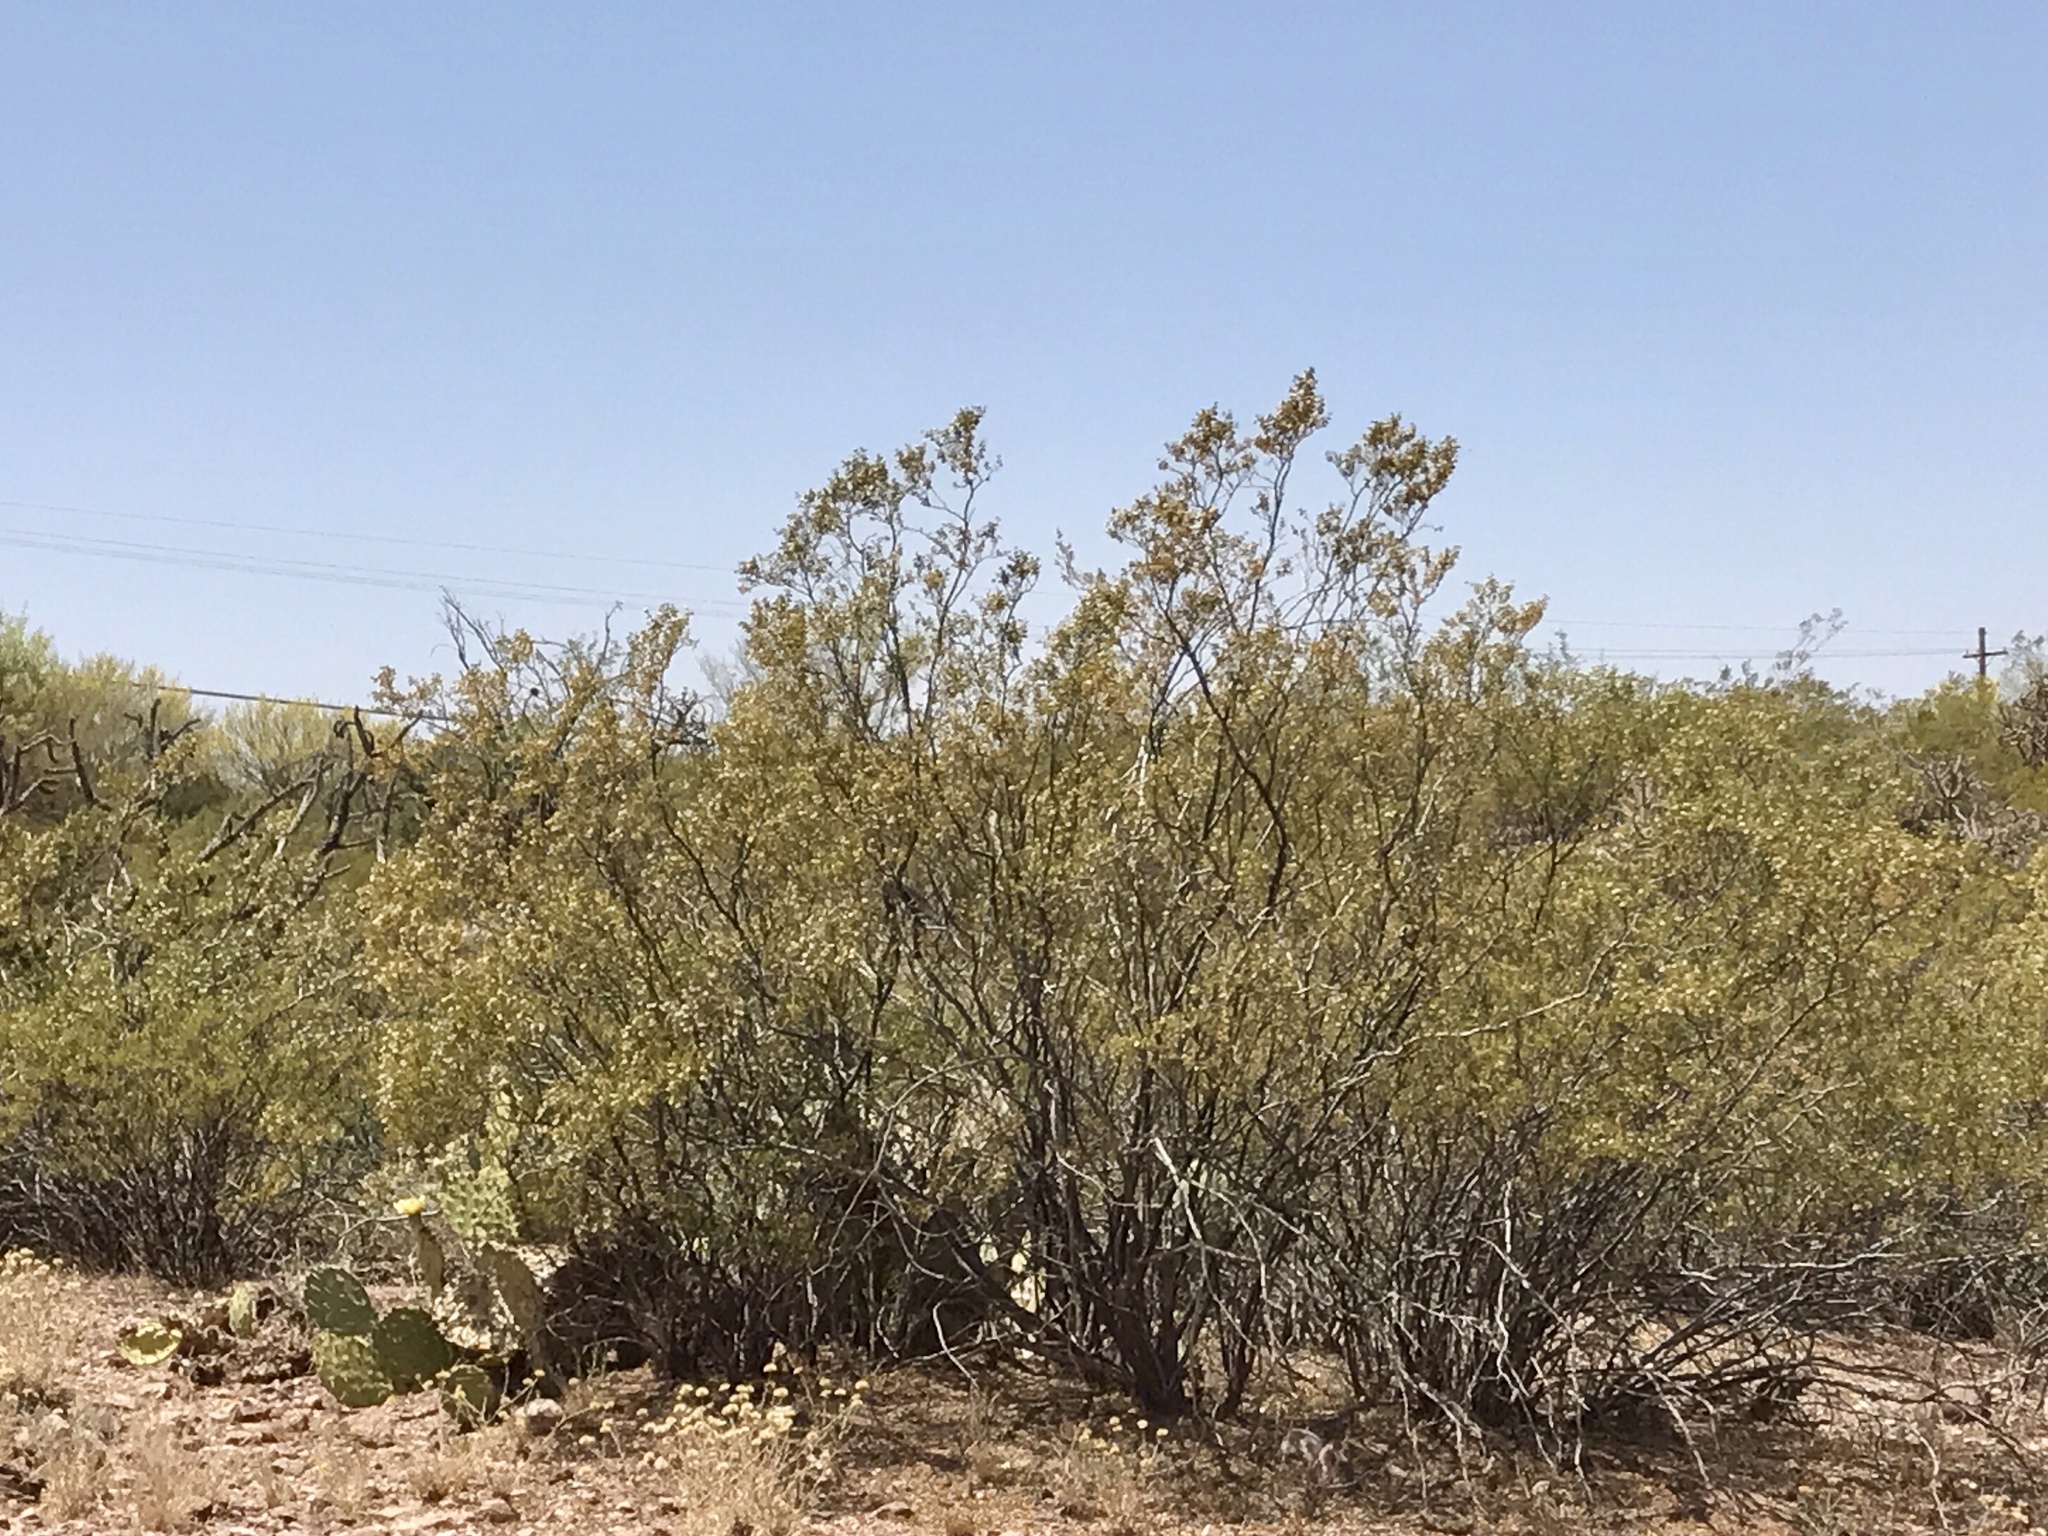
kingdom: Plantae
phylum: Tracheophyta
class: Magnoliopsida
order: Zygophyllales
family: Zygophyllaceae
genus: Larrea
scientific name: Larrea tridentata
